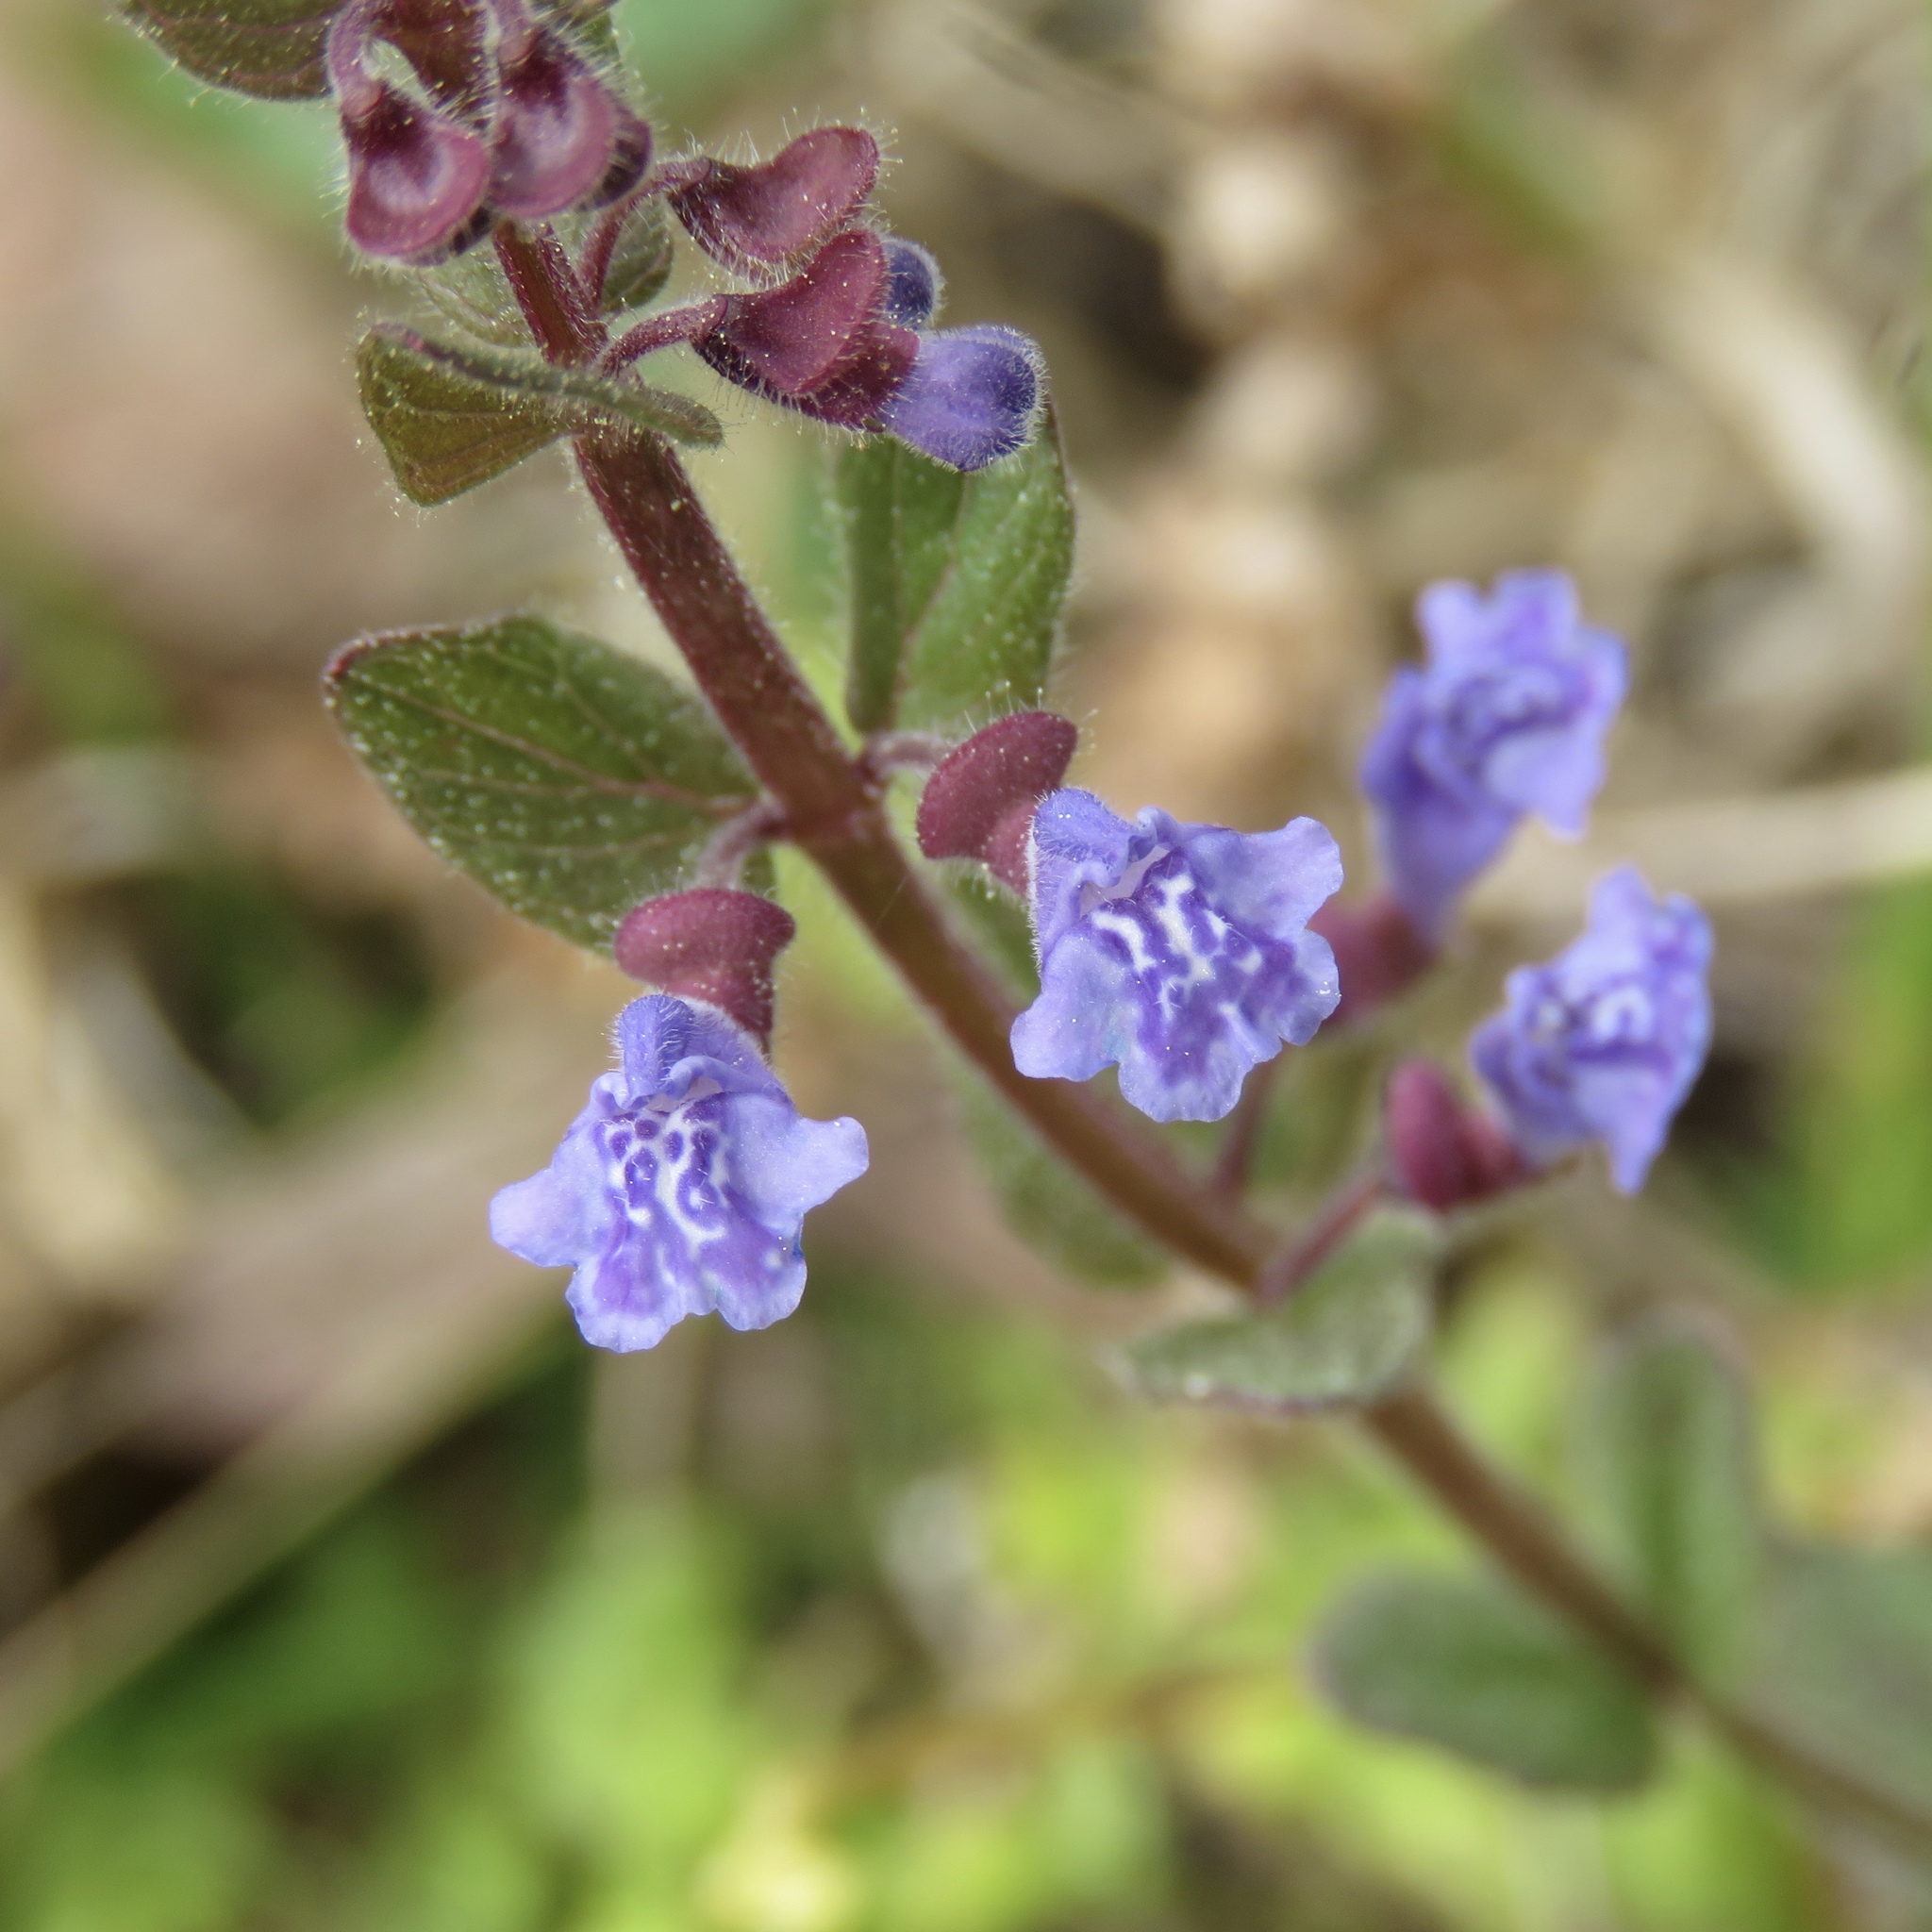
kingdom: Plantae
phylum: Tracheophyta
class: Magnoliopsida
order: Lamiales
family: Lamiaceae
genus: Scutellaria
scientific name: Scutellaria parvula
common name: Little scullcap
